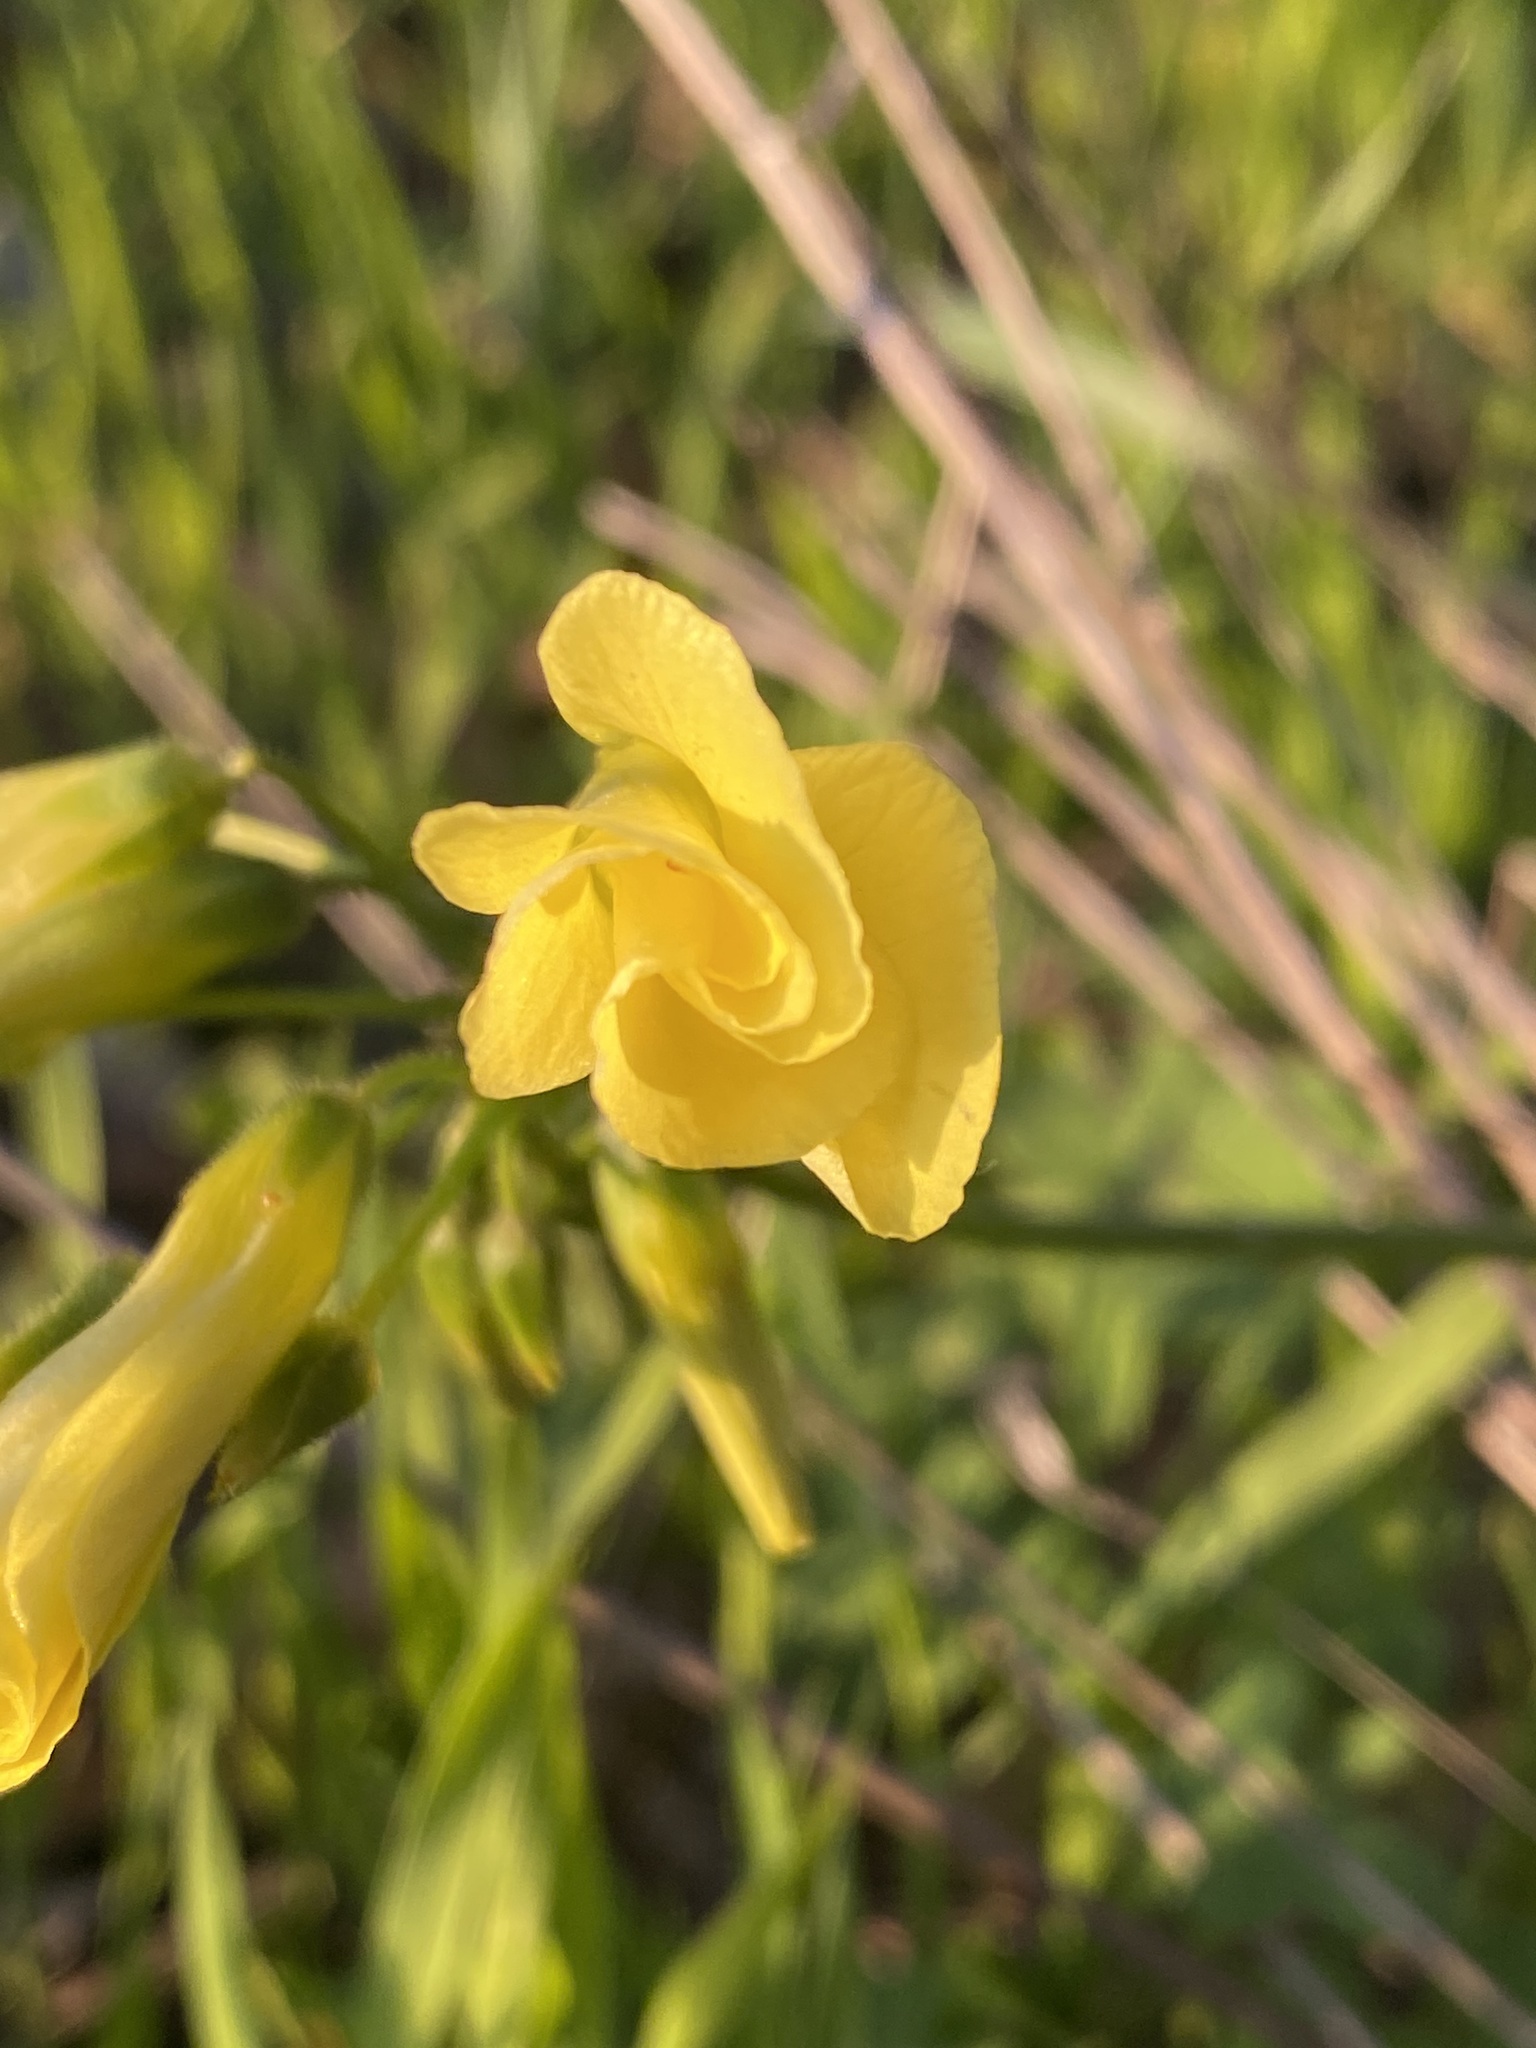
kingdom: Plantae
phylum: Tracheophyta
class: Magnoliopsida
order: Oxalidales
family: Oxalidaceae
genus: Oxalis
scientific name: Oxalis pes-caprae
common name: Bermuda-buttercup
